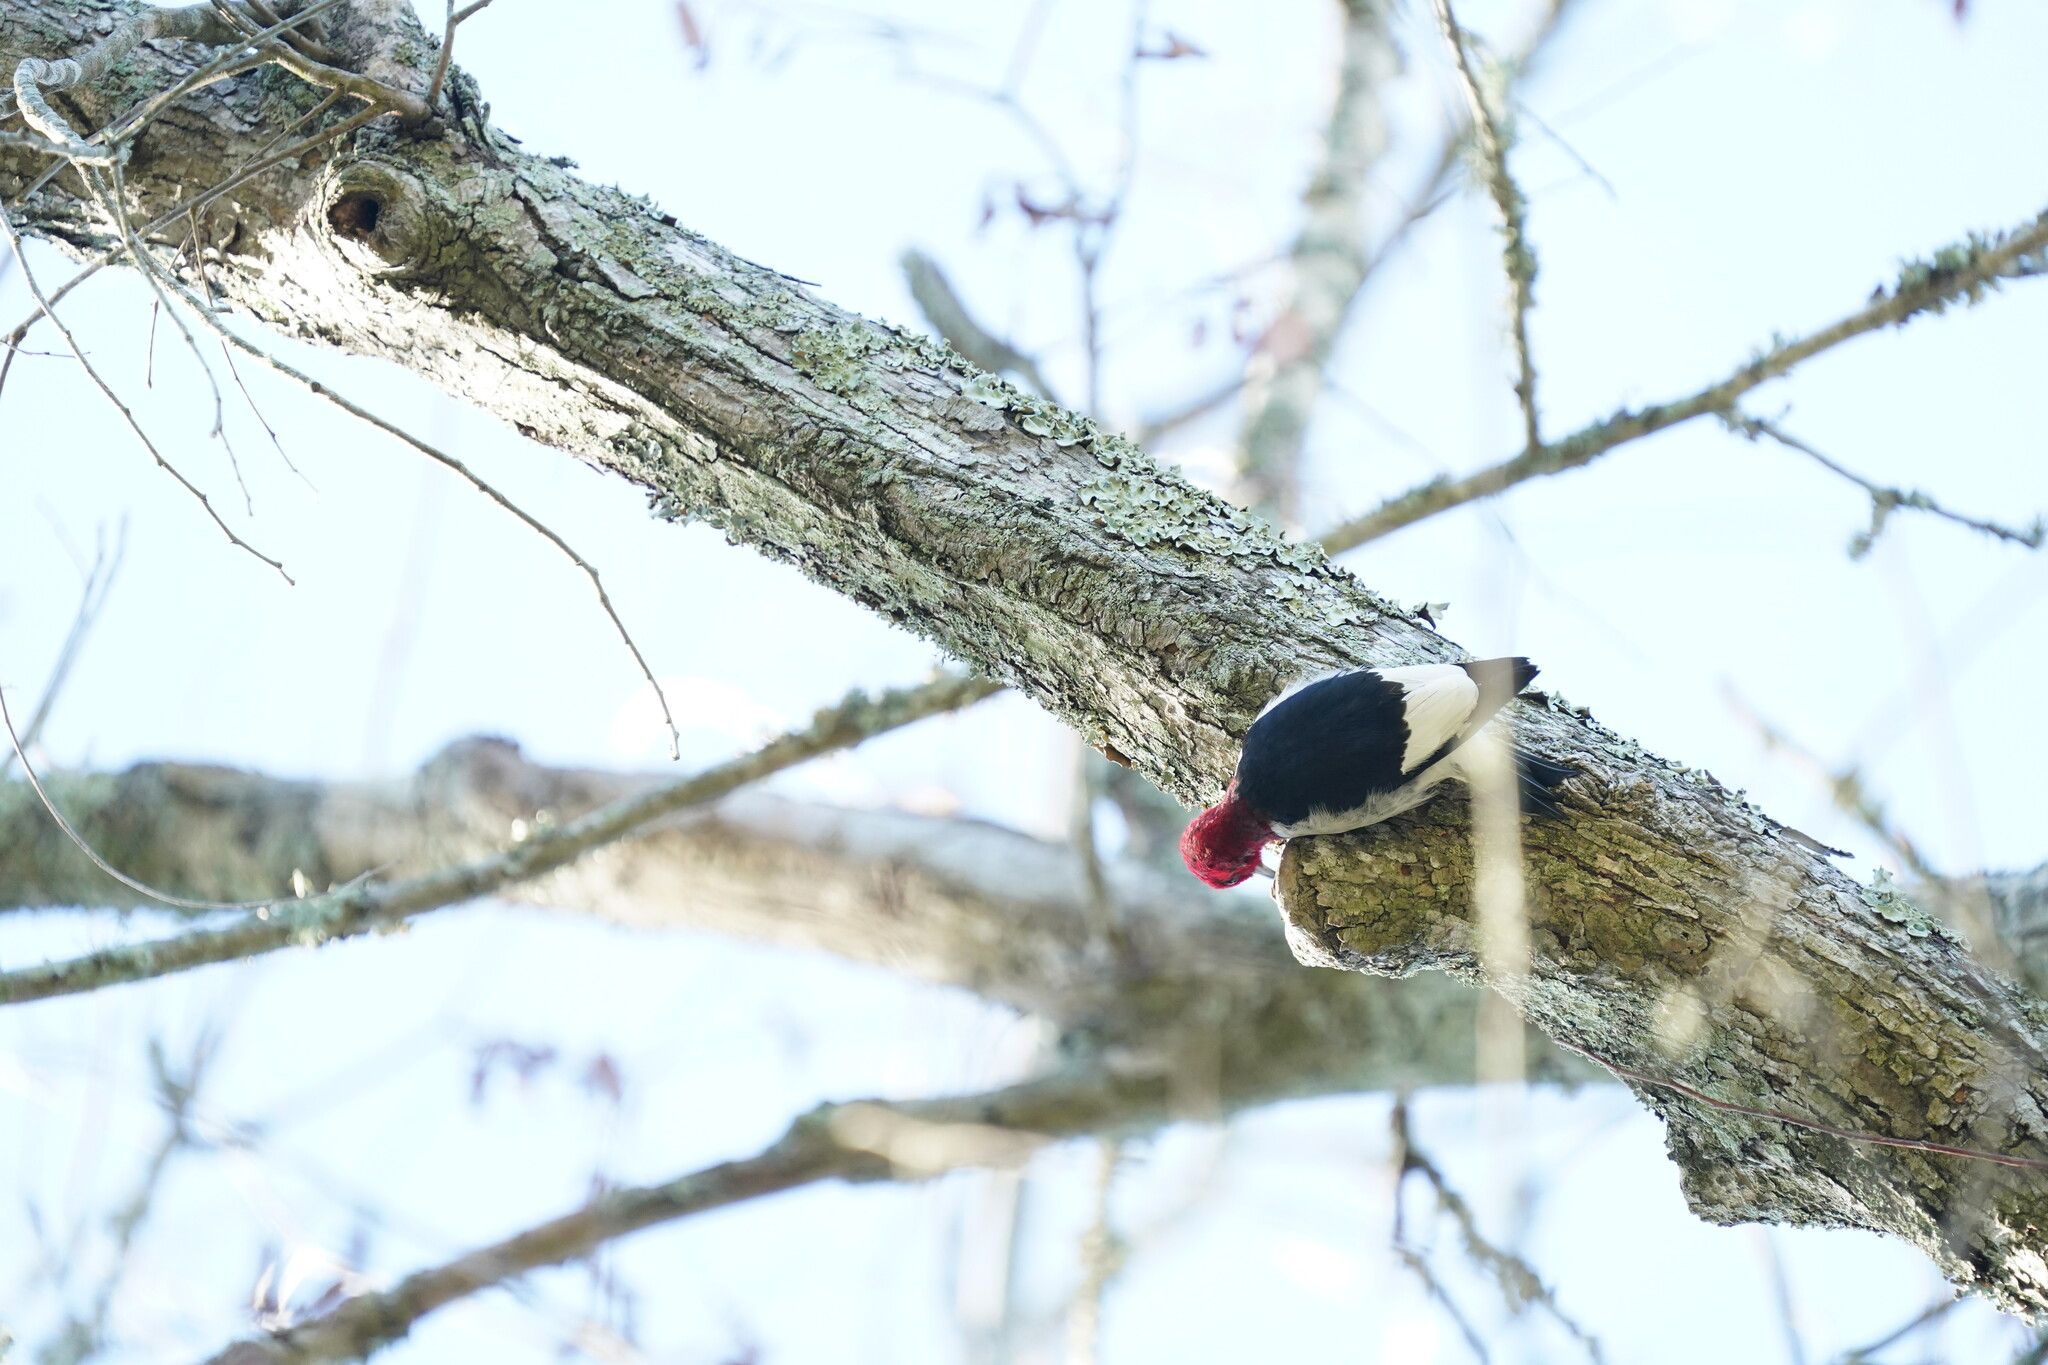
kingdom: Animalia
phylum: Chordata
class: Aves
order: Piciformes
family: Picidae
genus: Melanerpes
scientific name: Melanerpes erythrocephalus
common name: Red-headed woodpecker
